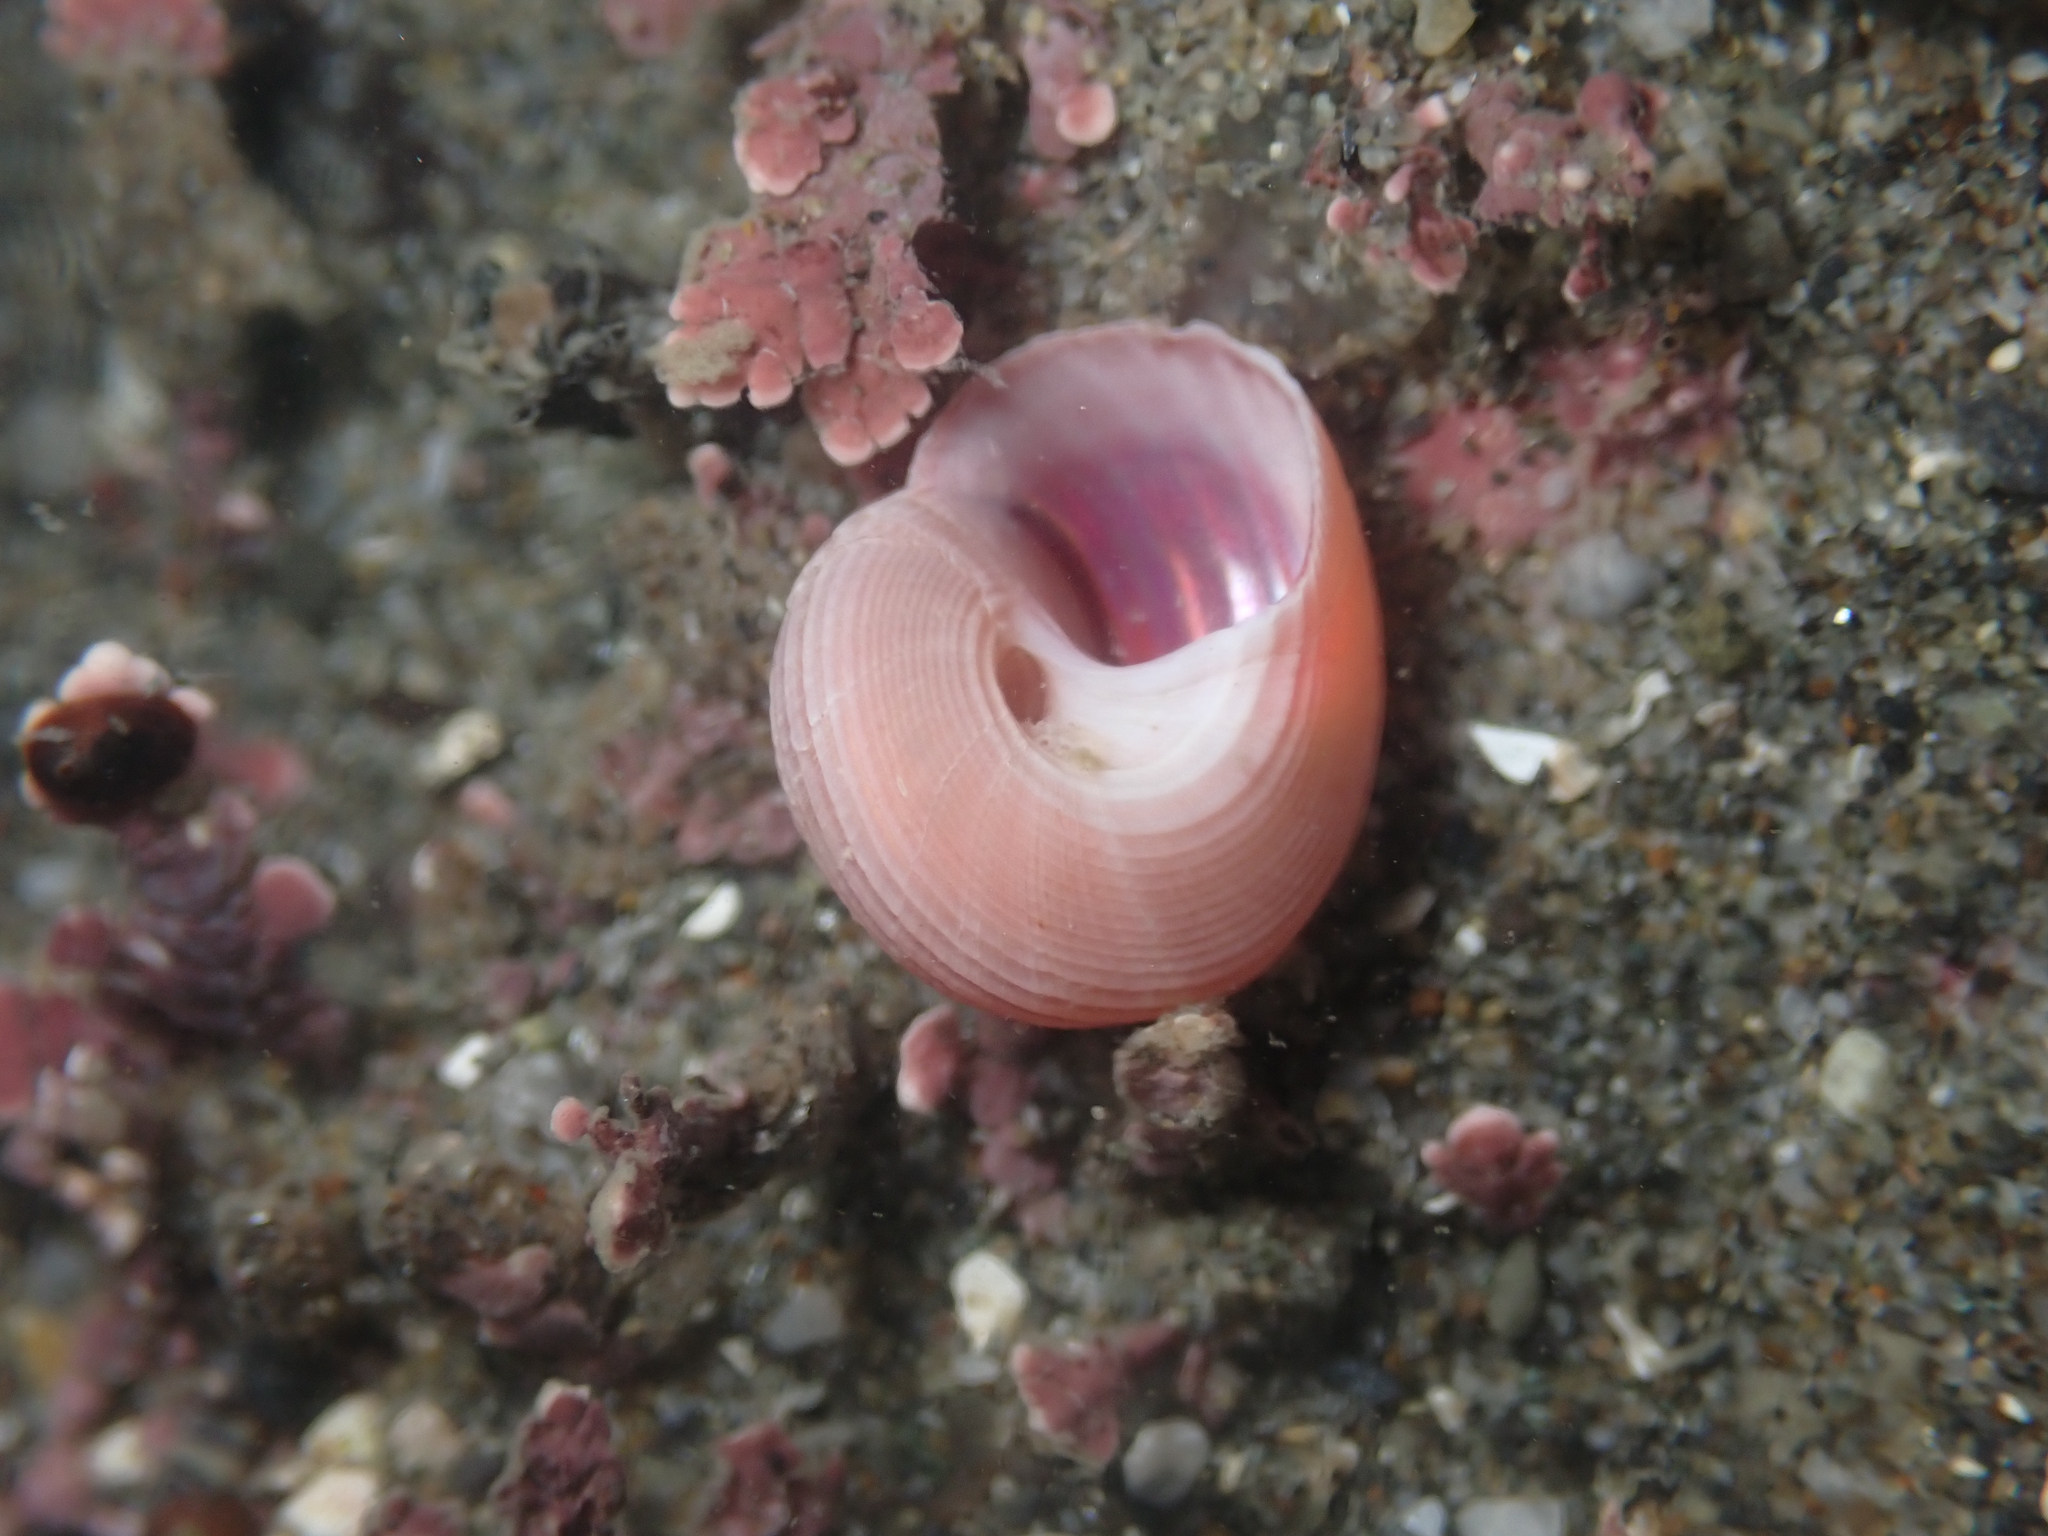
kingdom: Animalia
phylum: Mollusca
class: Gastropoda
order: Trochida
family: Margaritidae
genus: Margarites
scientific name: Margarites pupillus
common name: Puppet margarite
